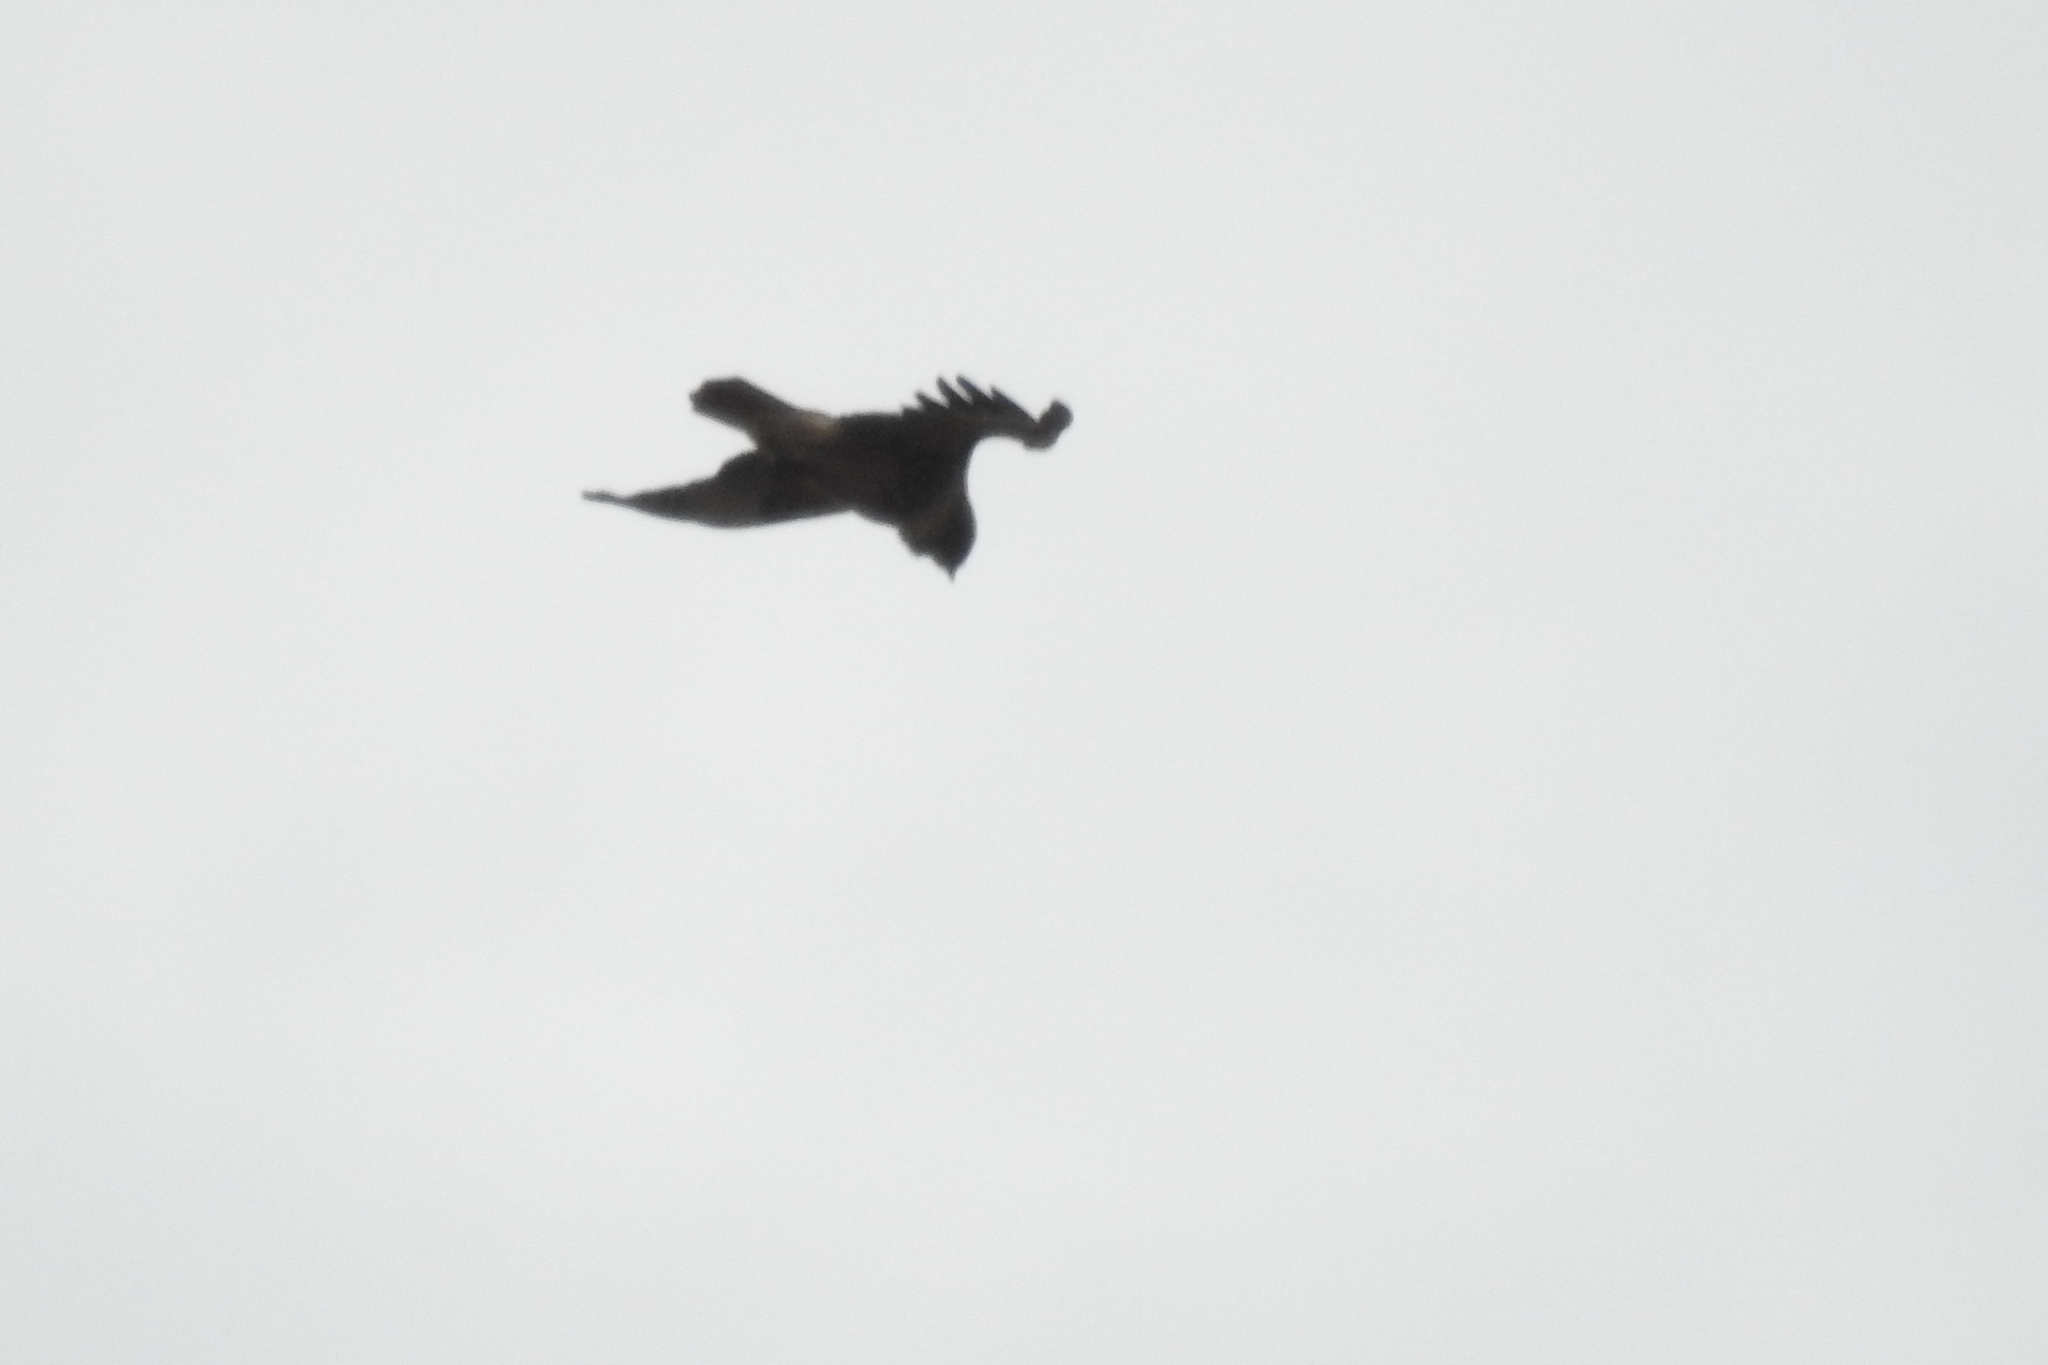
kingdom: Animalia
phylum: Chordata
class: Aves
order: Accipitriformes
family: Accipitridae
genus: Buteo
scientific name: Buteo jamaicensis
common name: Red-tailed hawk
